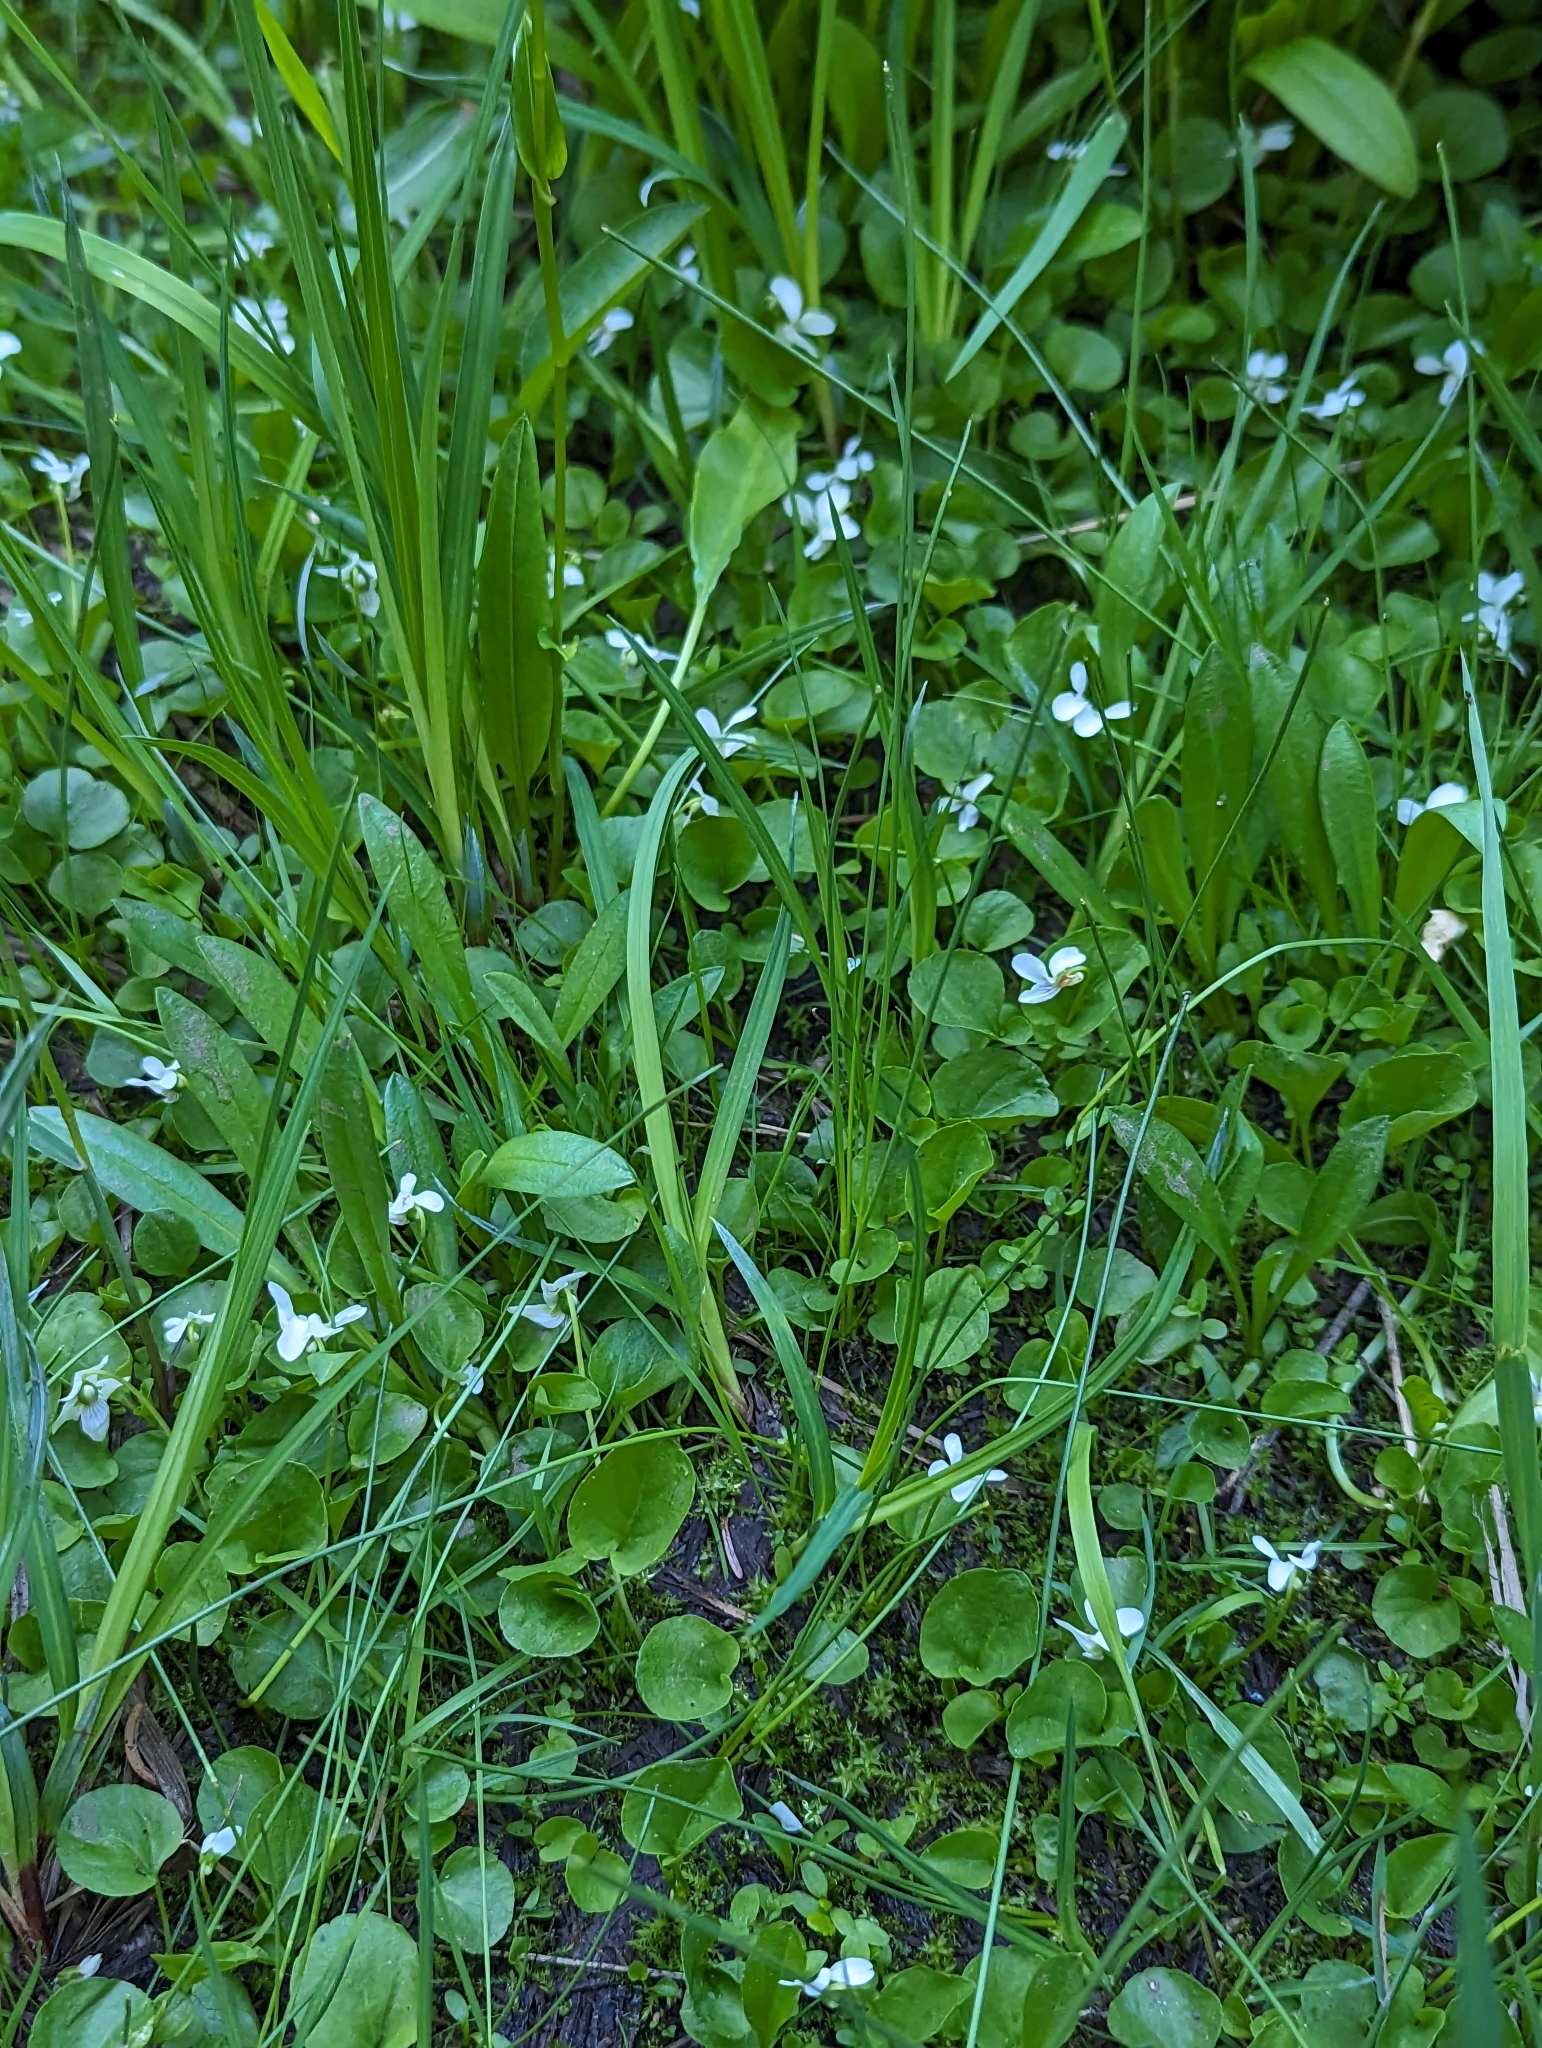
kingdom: Plantae
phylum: Tracheophyta
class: Magnoliopsida
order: Malpighiales
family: Violaceae
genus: Viola
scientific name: Viola macloskeyi
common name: Macloskey's violet
